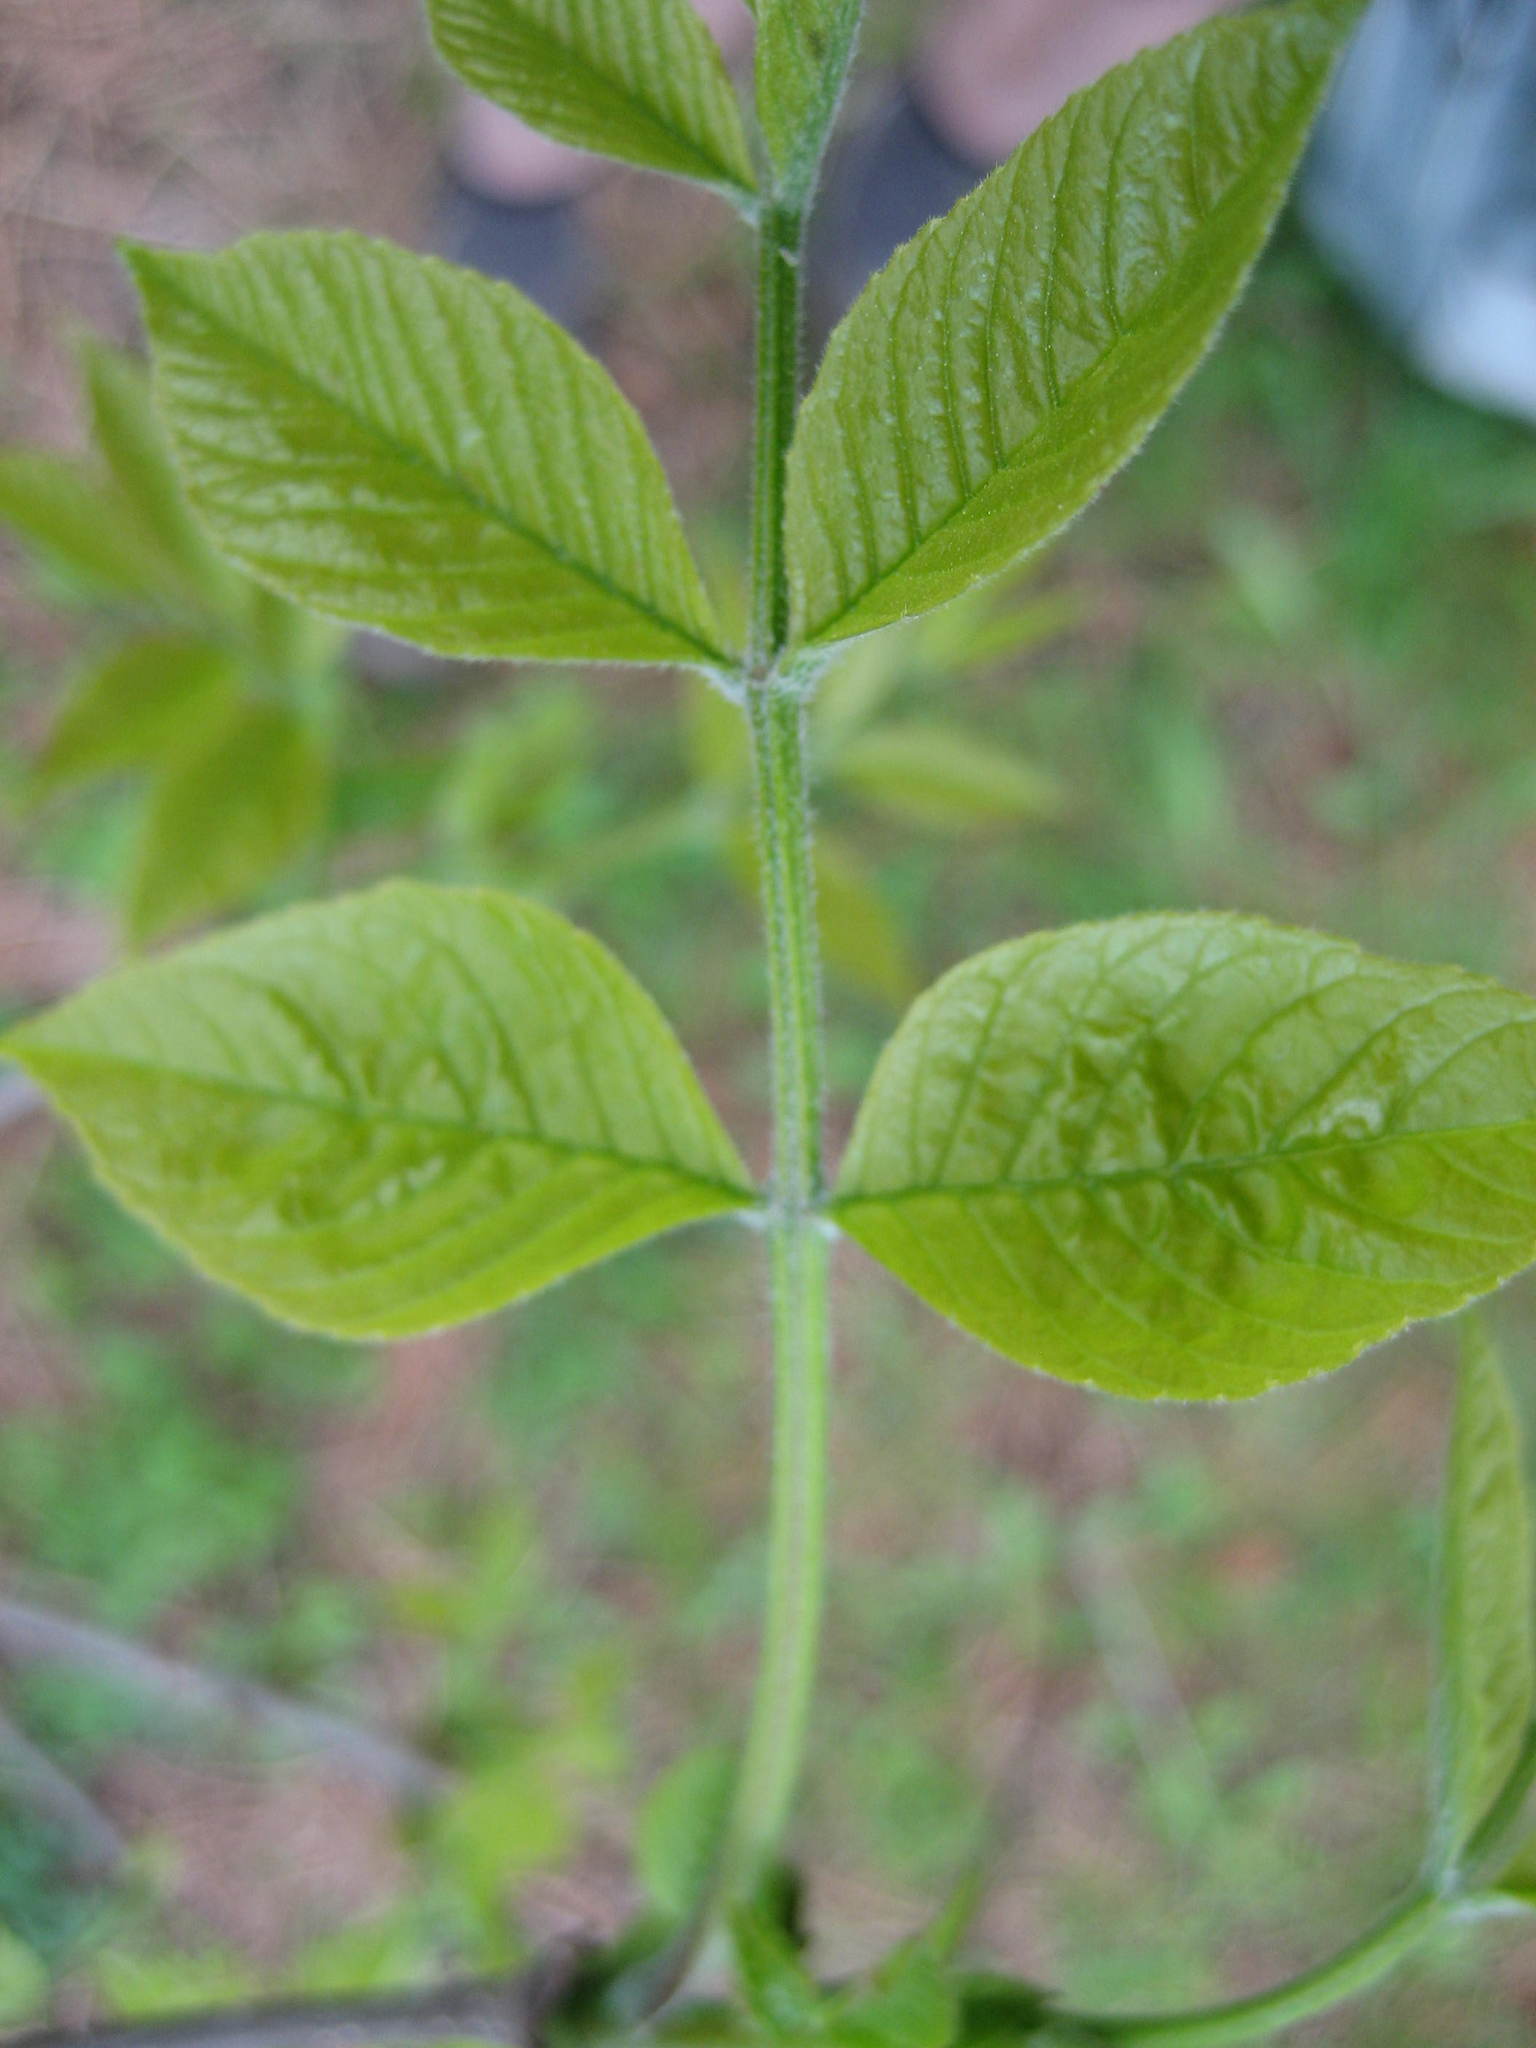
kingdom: Plantae
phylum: Tracheophyta
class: Magnoliopsida
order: Lamiales
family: Oleaceae
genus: Fraxinus
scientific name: Fraxinus pennsylvanica
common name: Green ash
